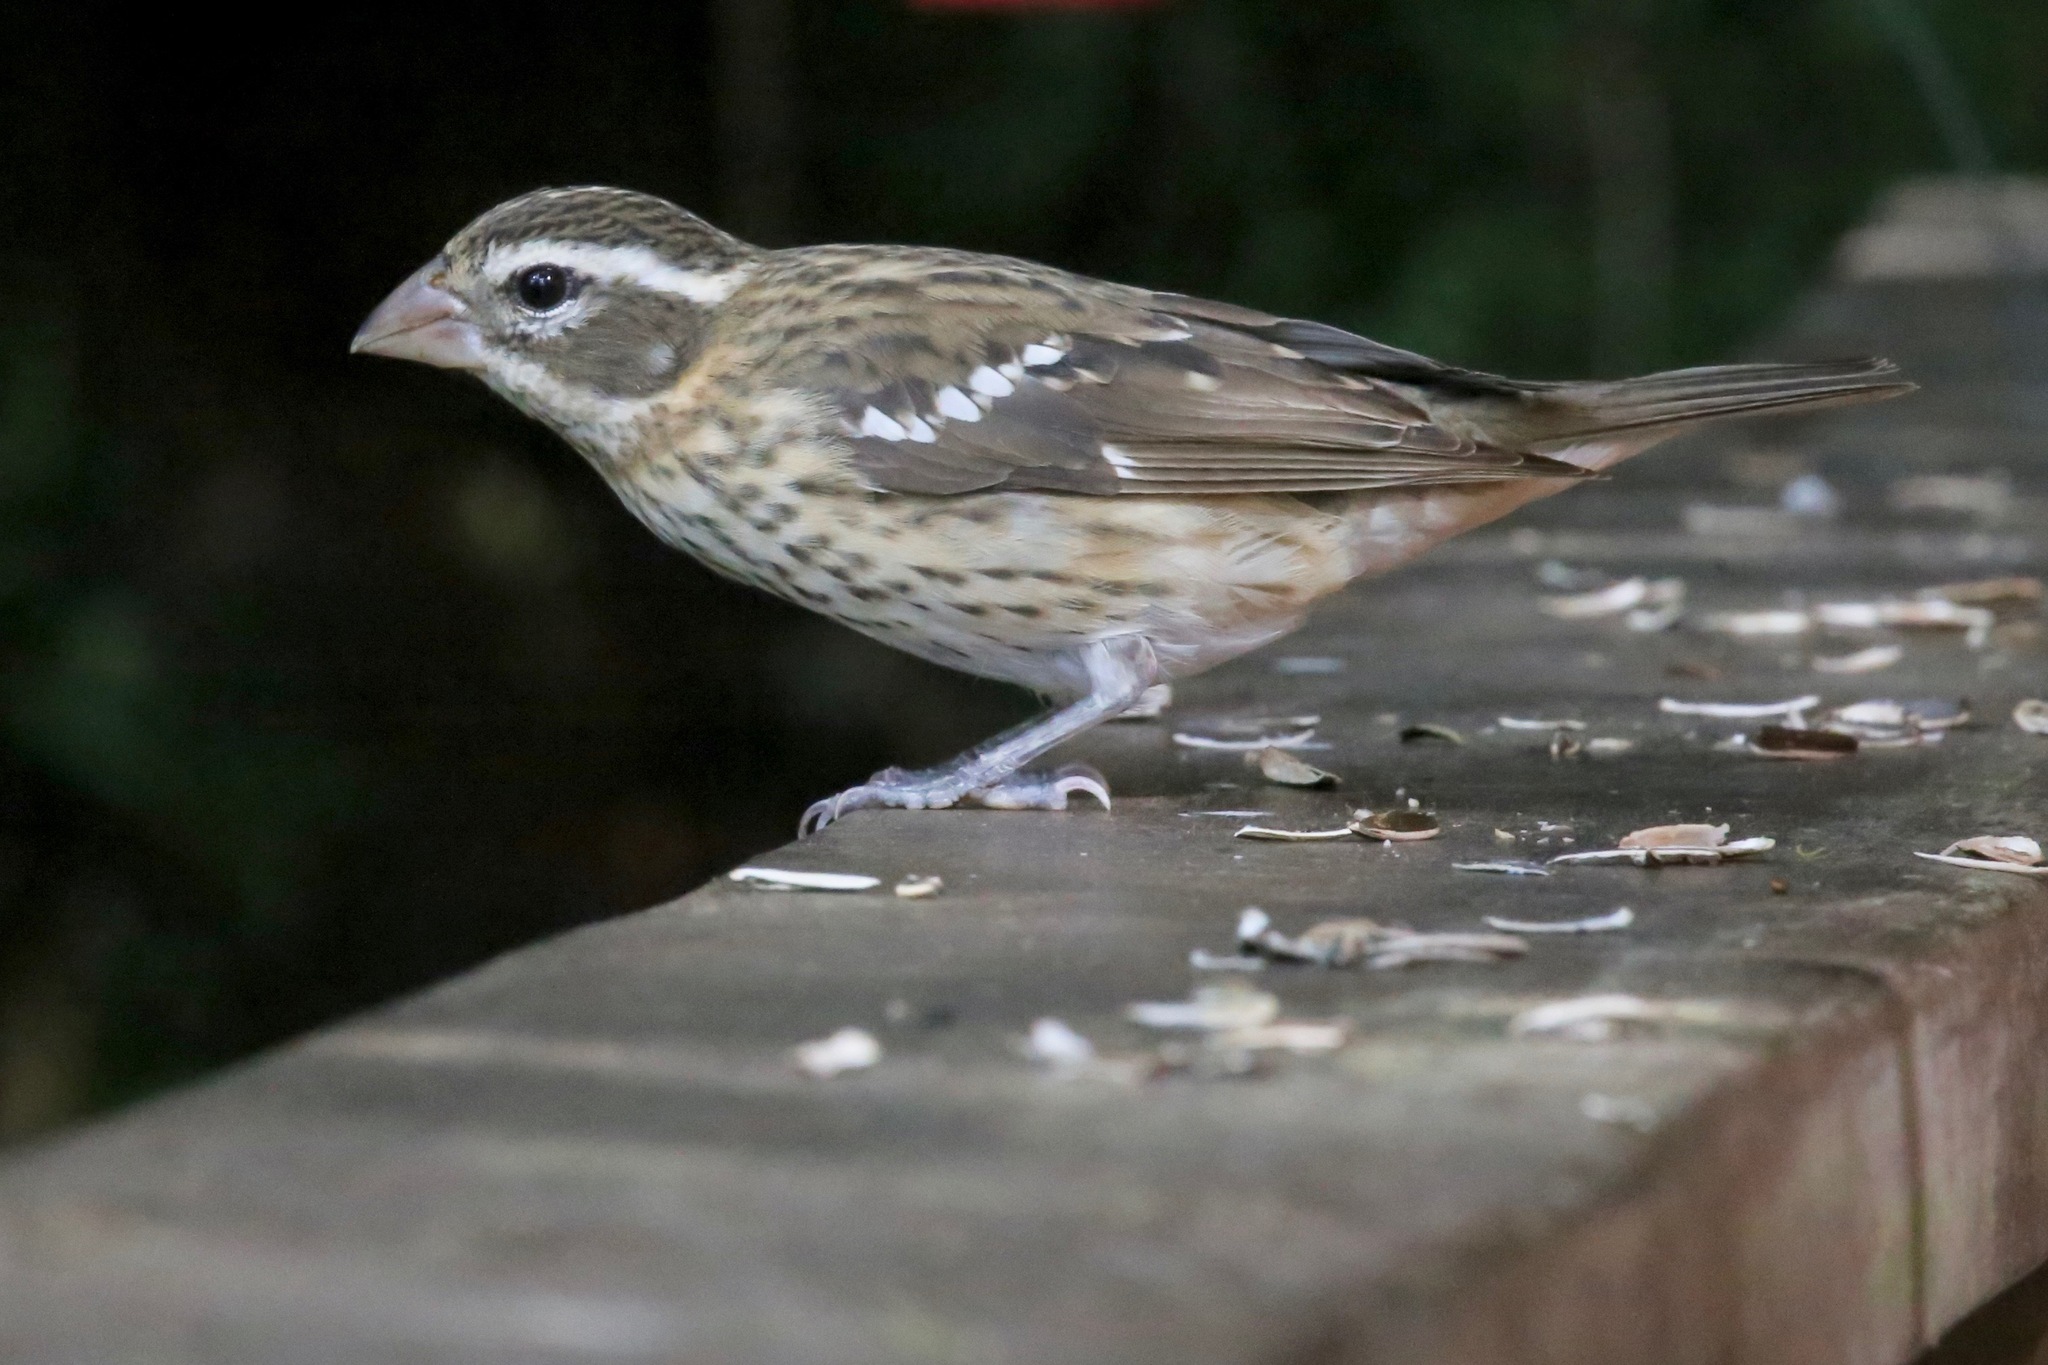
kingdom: Animalia
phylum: Chordata
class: Aves
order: Passeriformes
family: Cardinalidae
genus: Pheucticus
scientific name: Pheucticus ludovicianus
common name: Rose-breasted grosbeak
